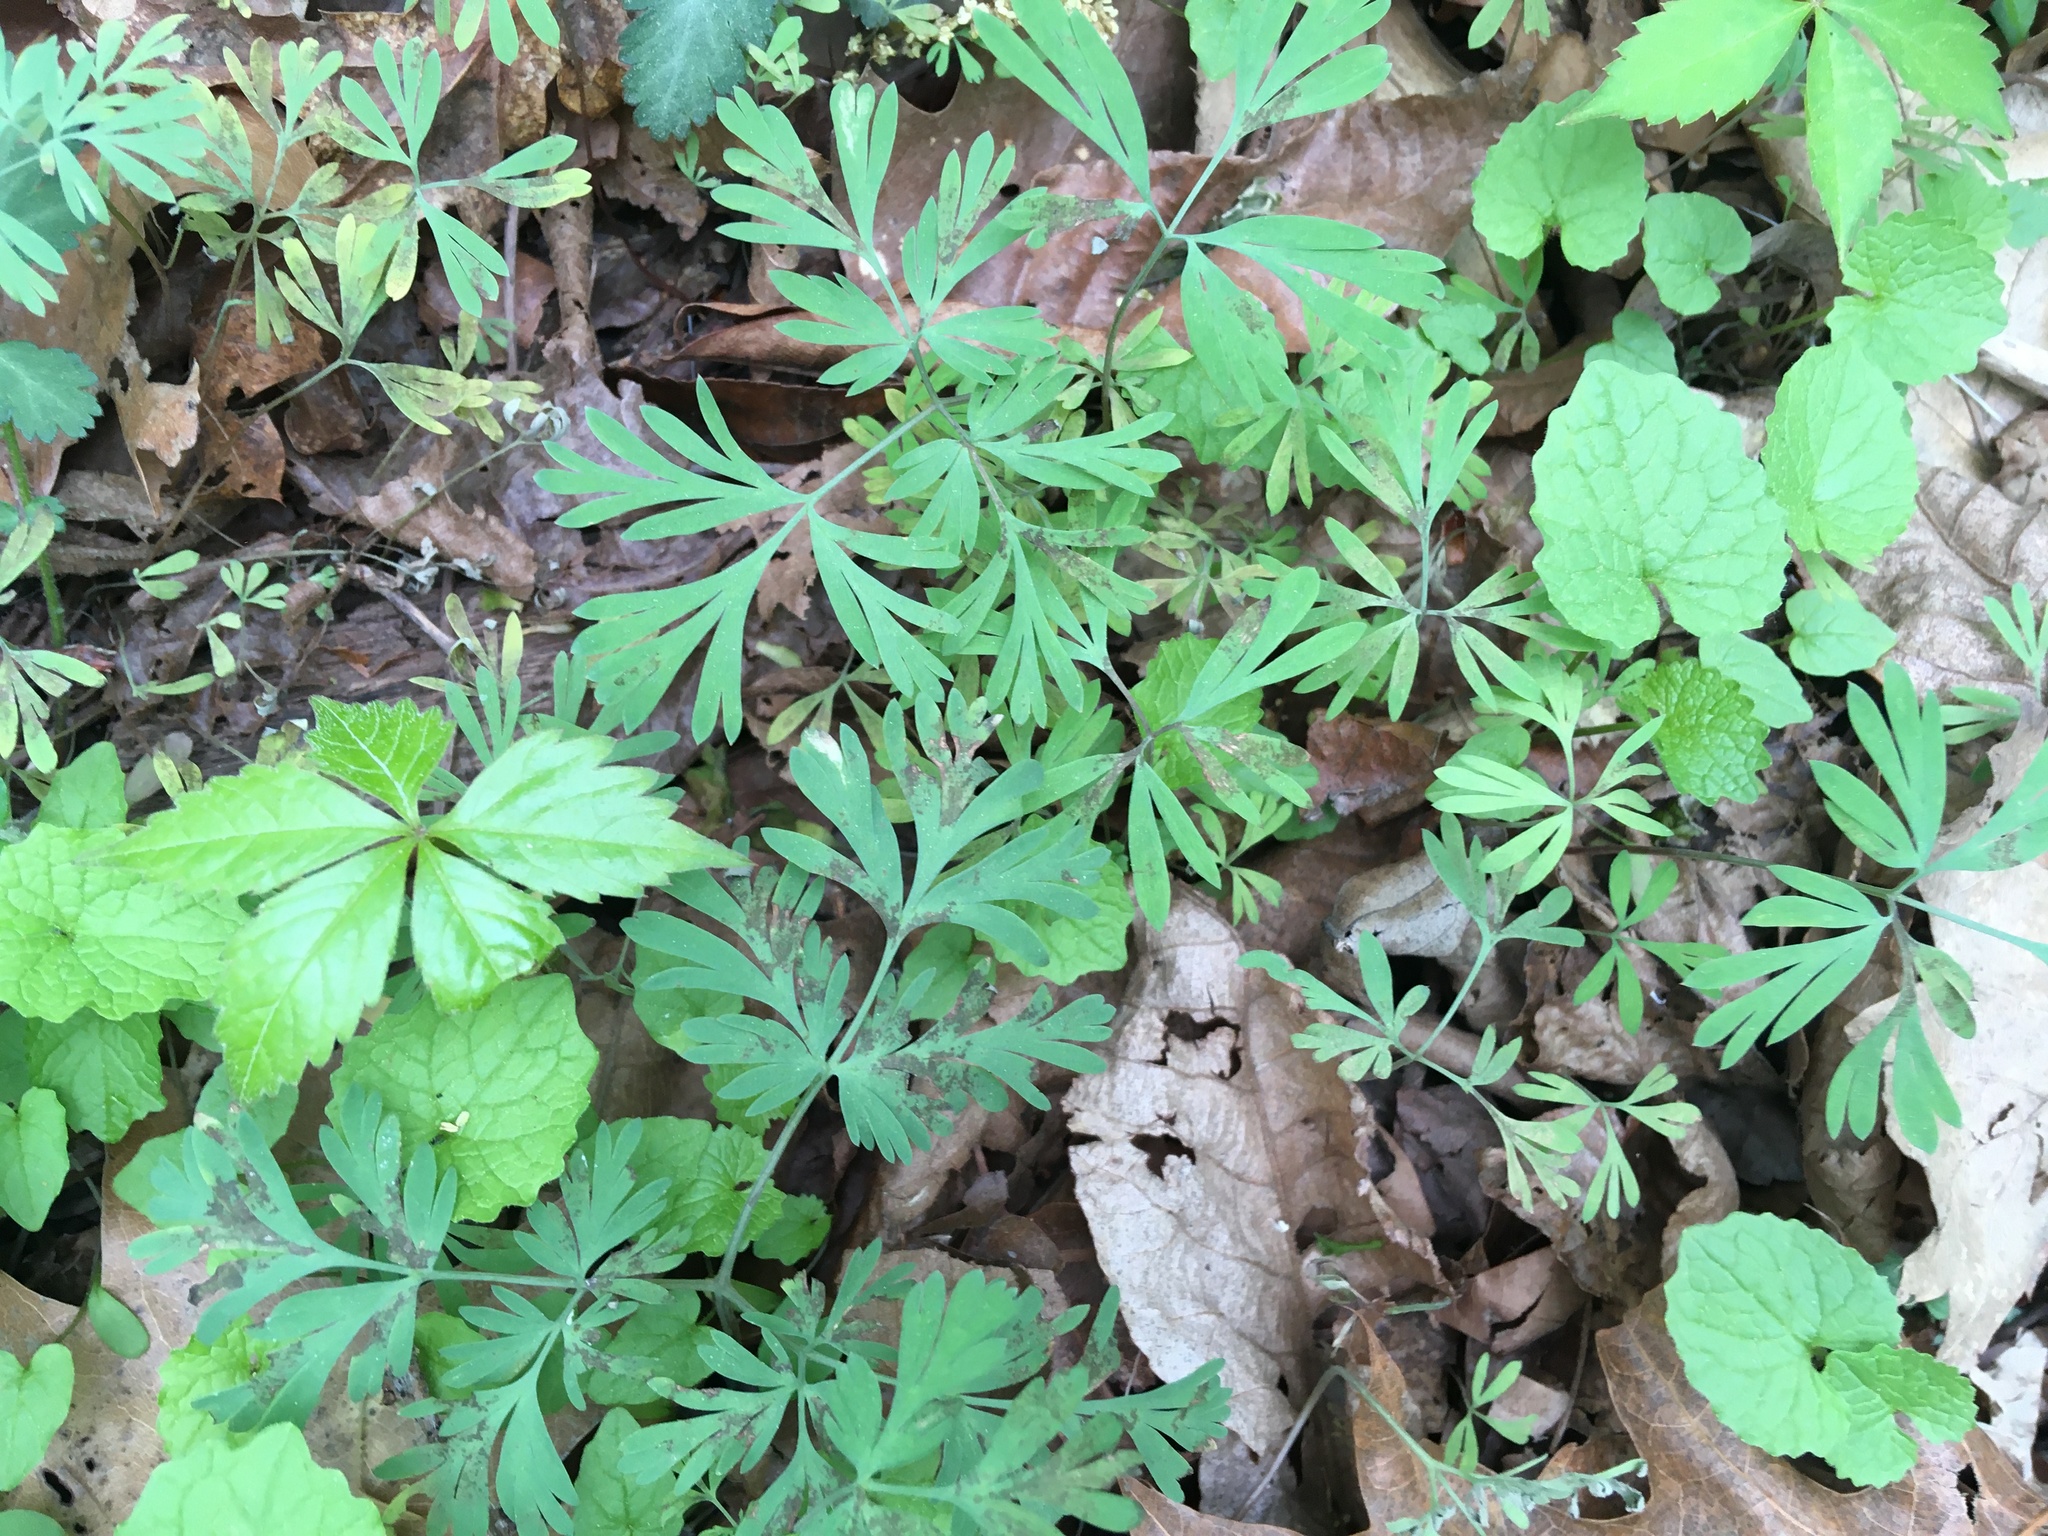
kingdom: Plantae
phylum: Tracheophyta
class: Magnoliopsida
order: Ranunculales
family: Papaveraceae
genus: Dicentra
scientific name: Dicentra cucullaria
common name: Dutchman's breeches
